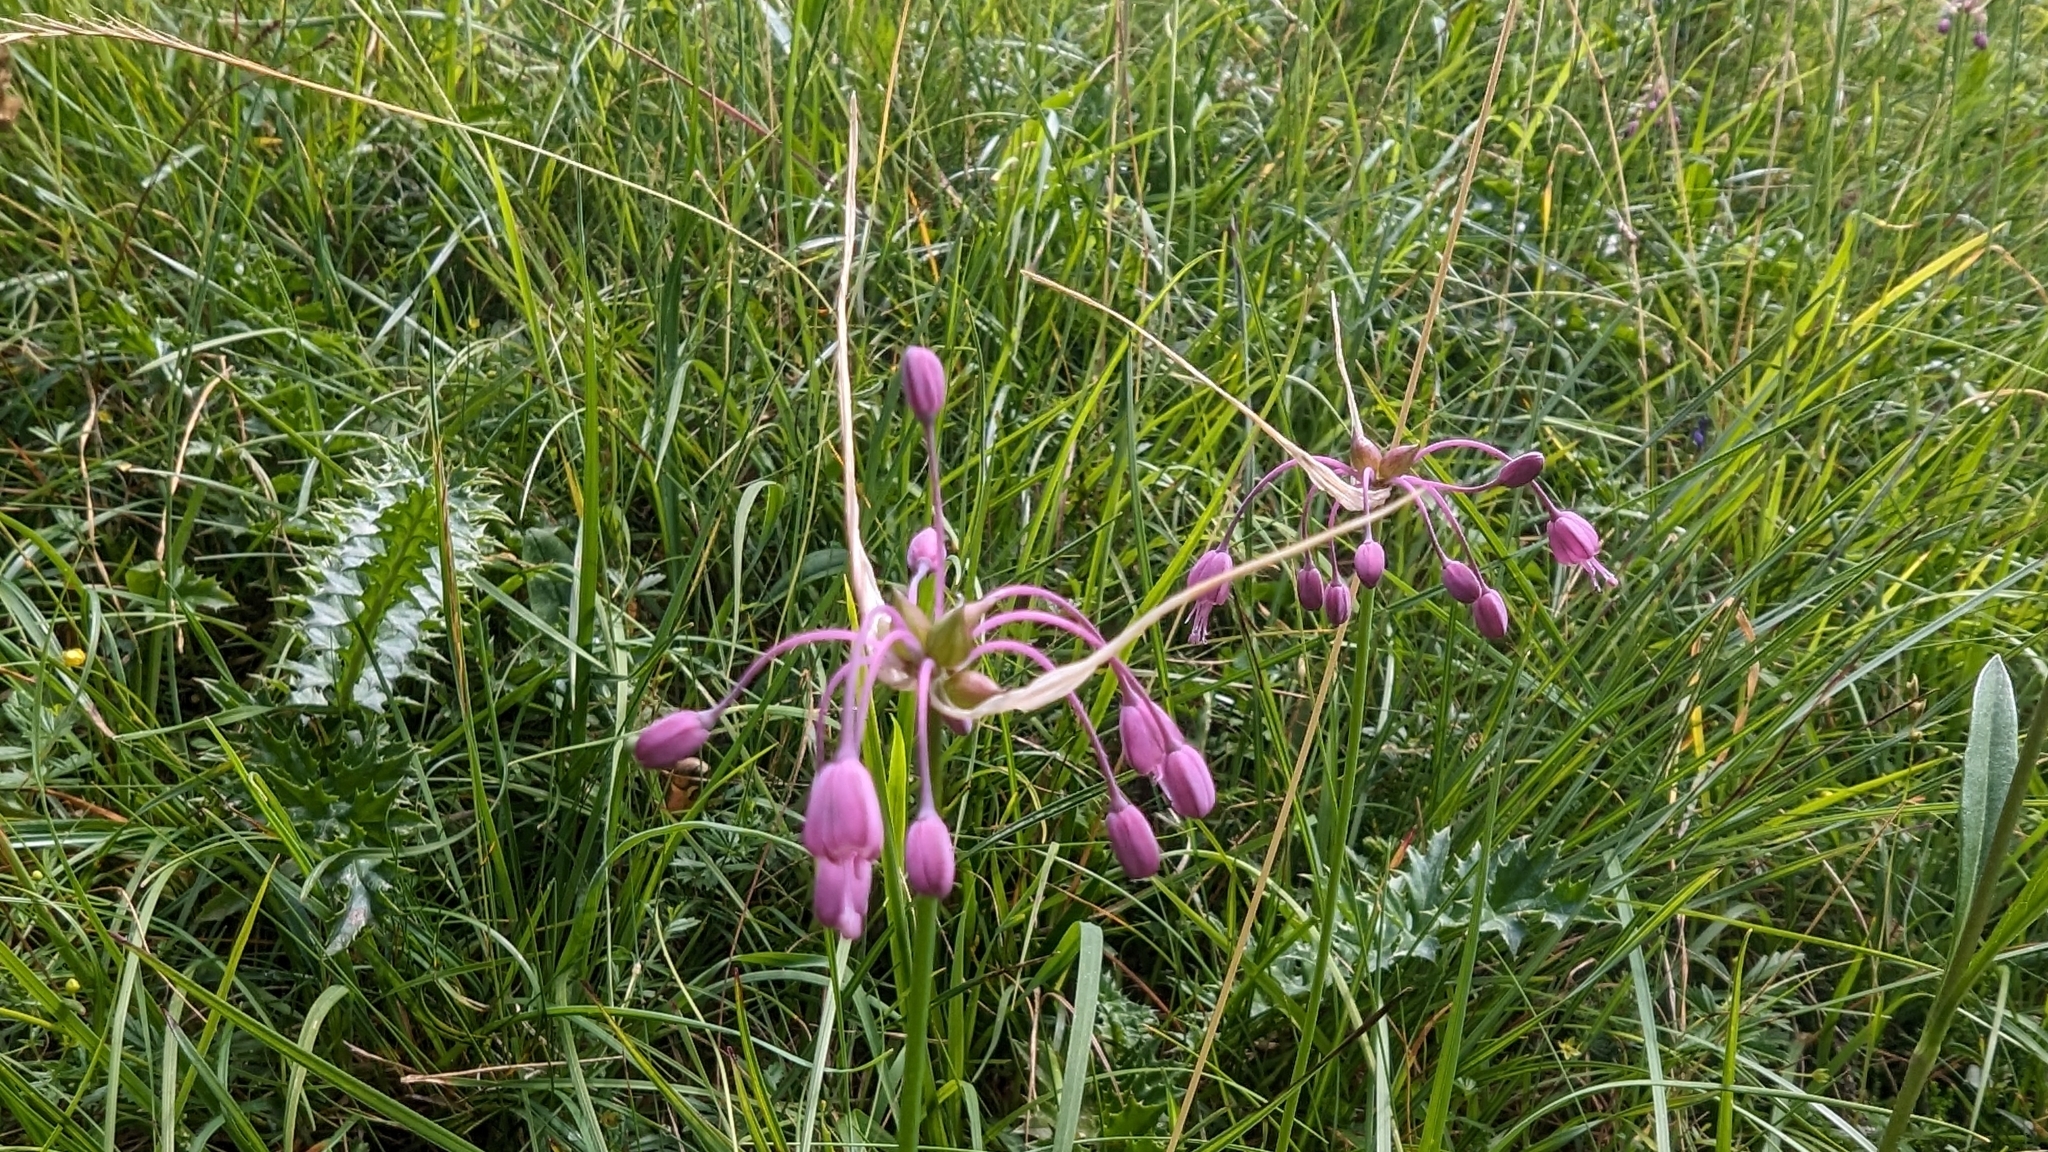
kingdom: Plantae
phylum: Tracheophyta
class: Liliopsida
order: Asparagales
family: Amaryllidaceae
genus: Allium
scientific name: Allium carinatum
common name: Keeled garlic
